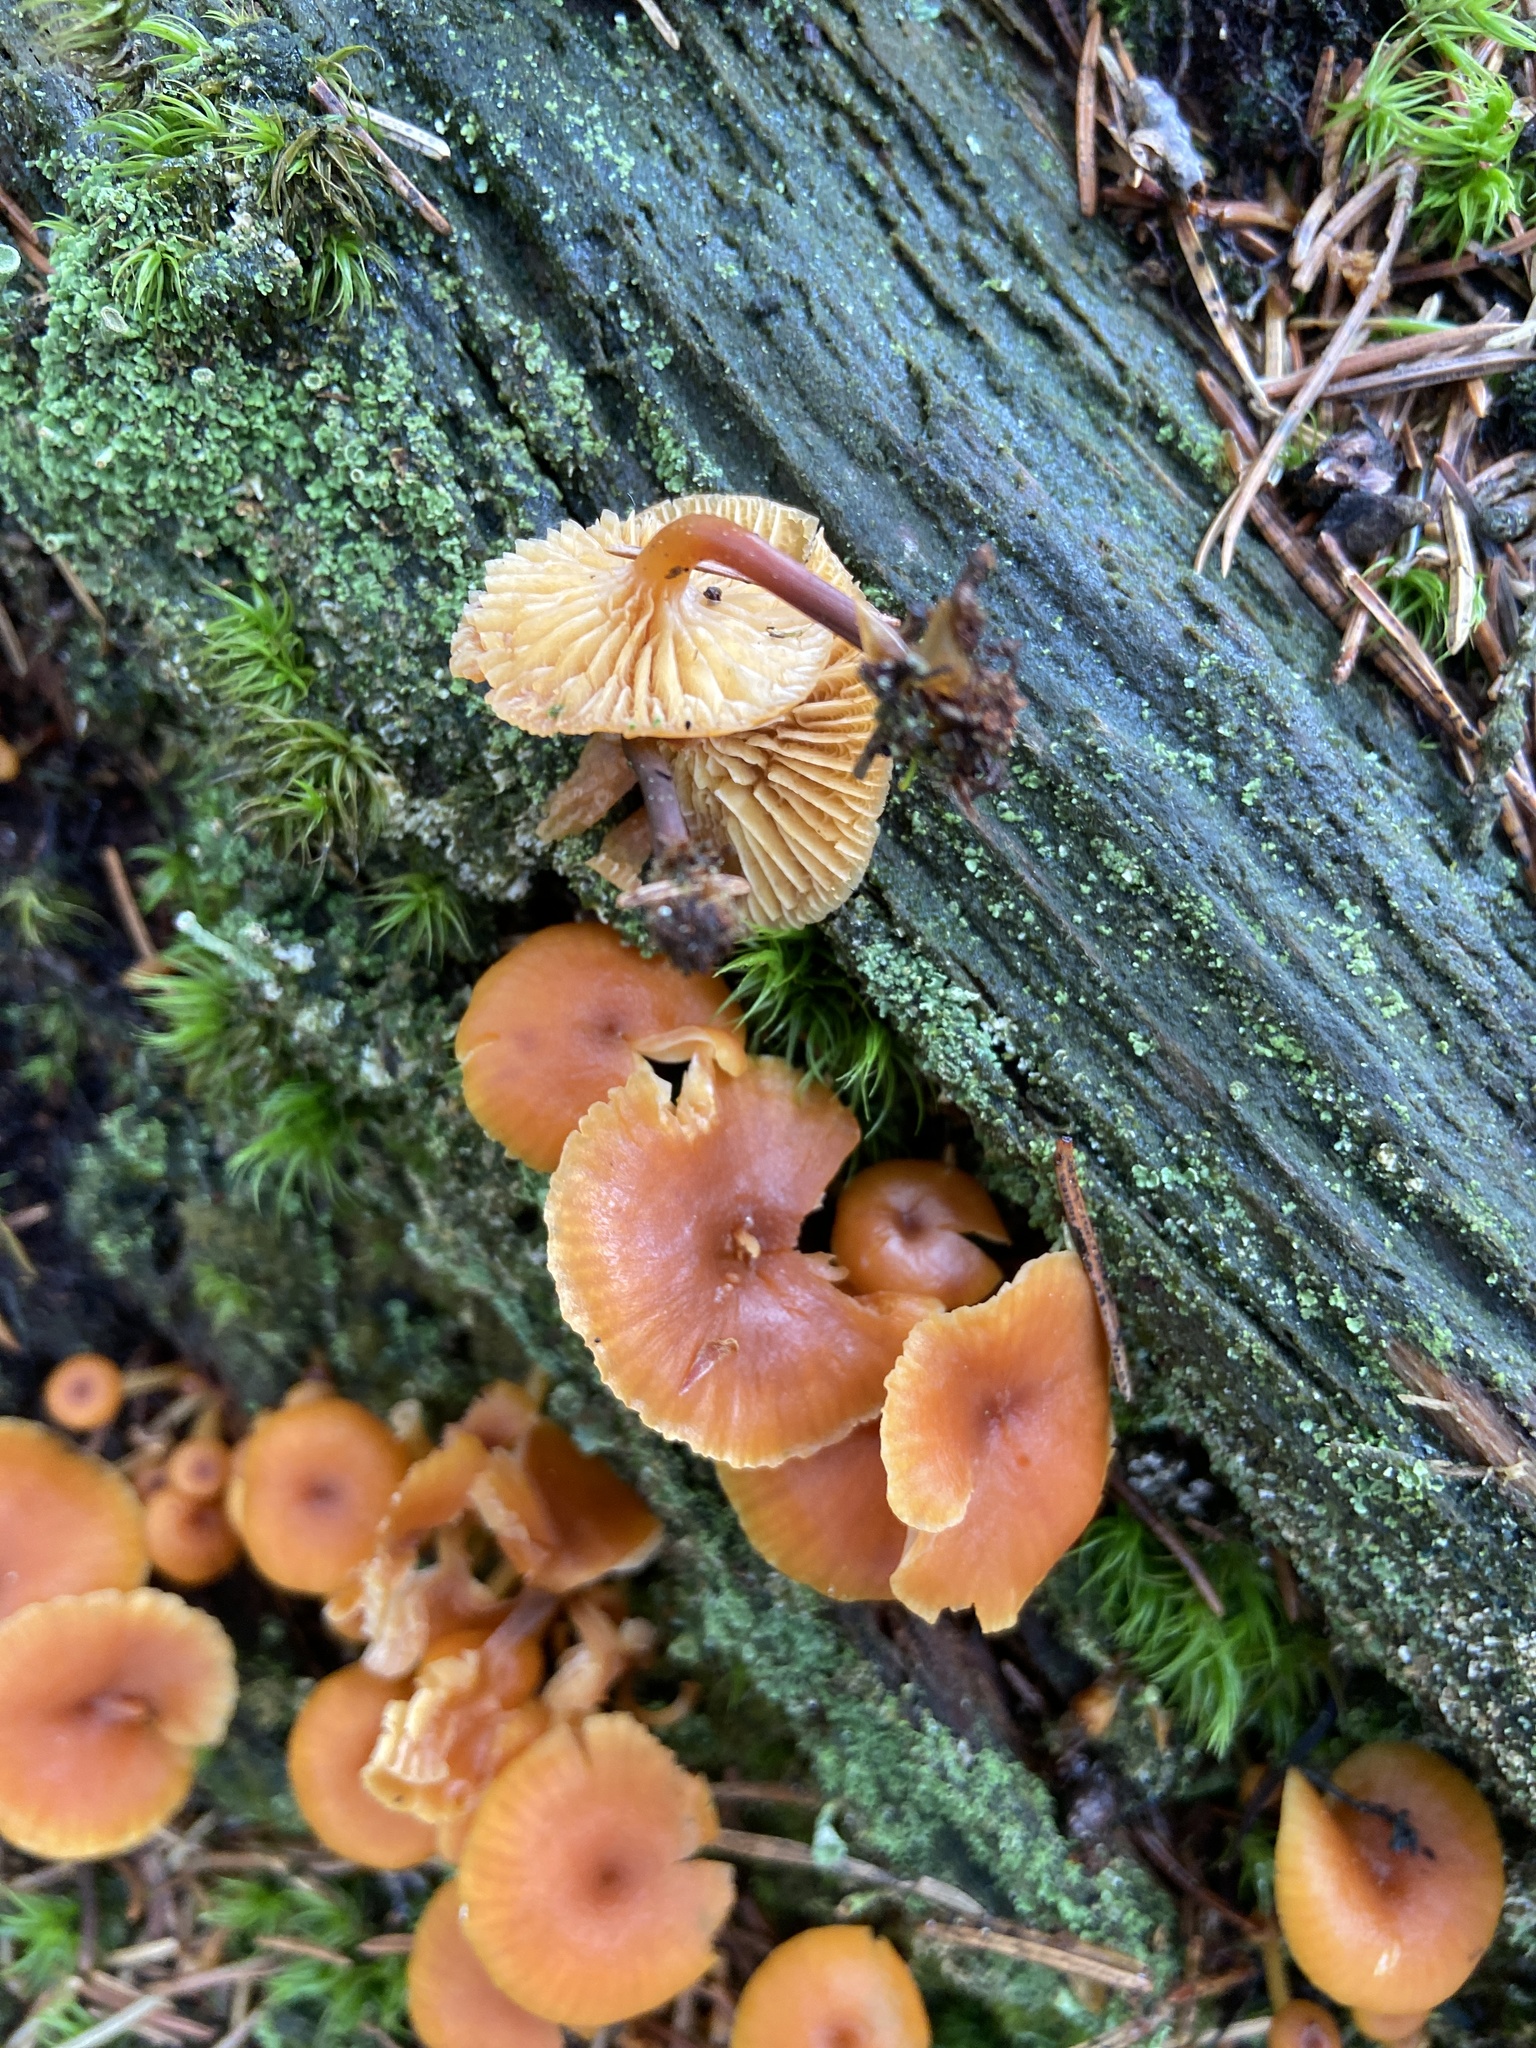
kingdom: Fungi
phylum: Basidiomycota
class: Agaricomycetes
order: Agaricales
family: Mycenaceae
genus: Xeromphalina
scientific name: Xeromphalina campanella
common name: Pinewood gingertail
